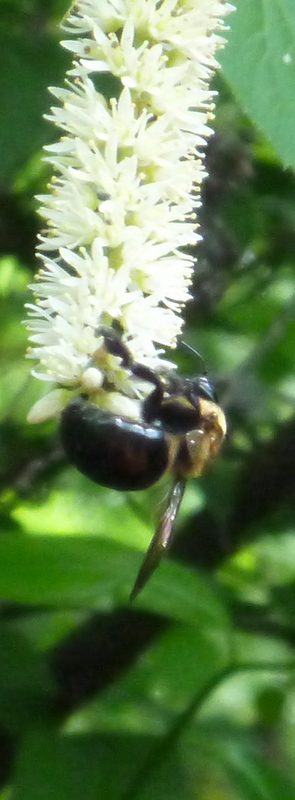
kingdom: Animalia
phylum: Arthropoda
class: Insecta
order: Hymenoptera
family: Apidae
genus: Xylocopa
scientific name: Xylocopa virginica
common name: Carpenter bee
